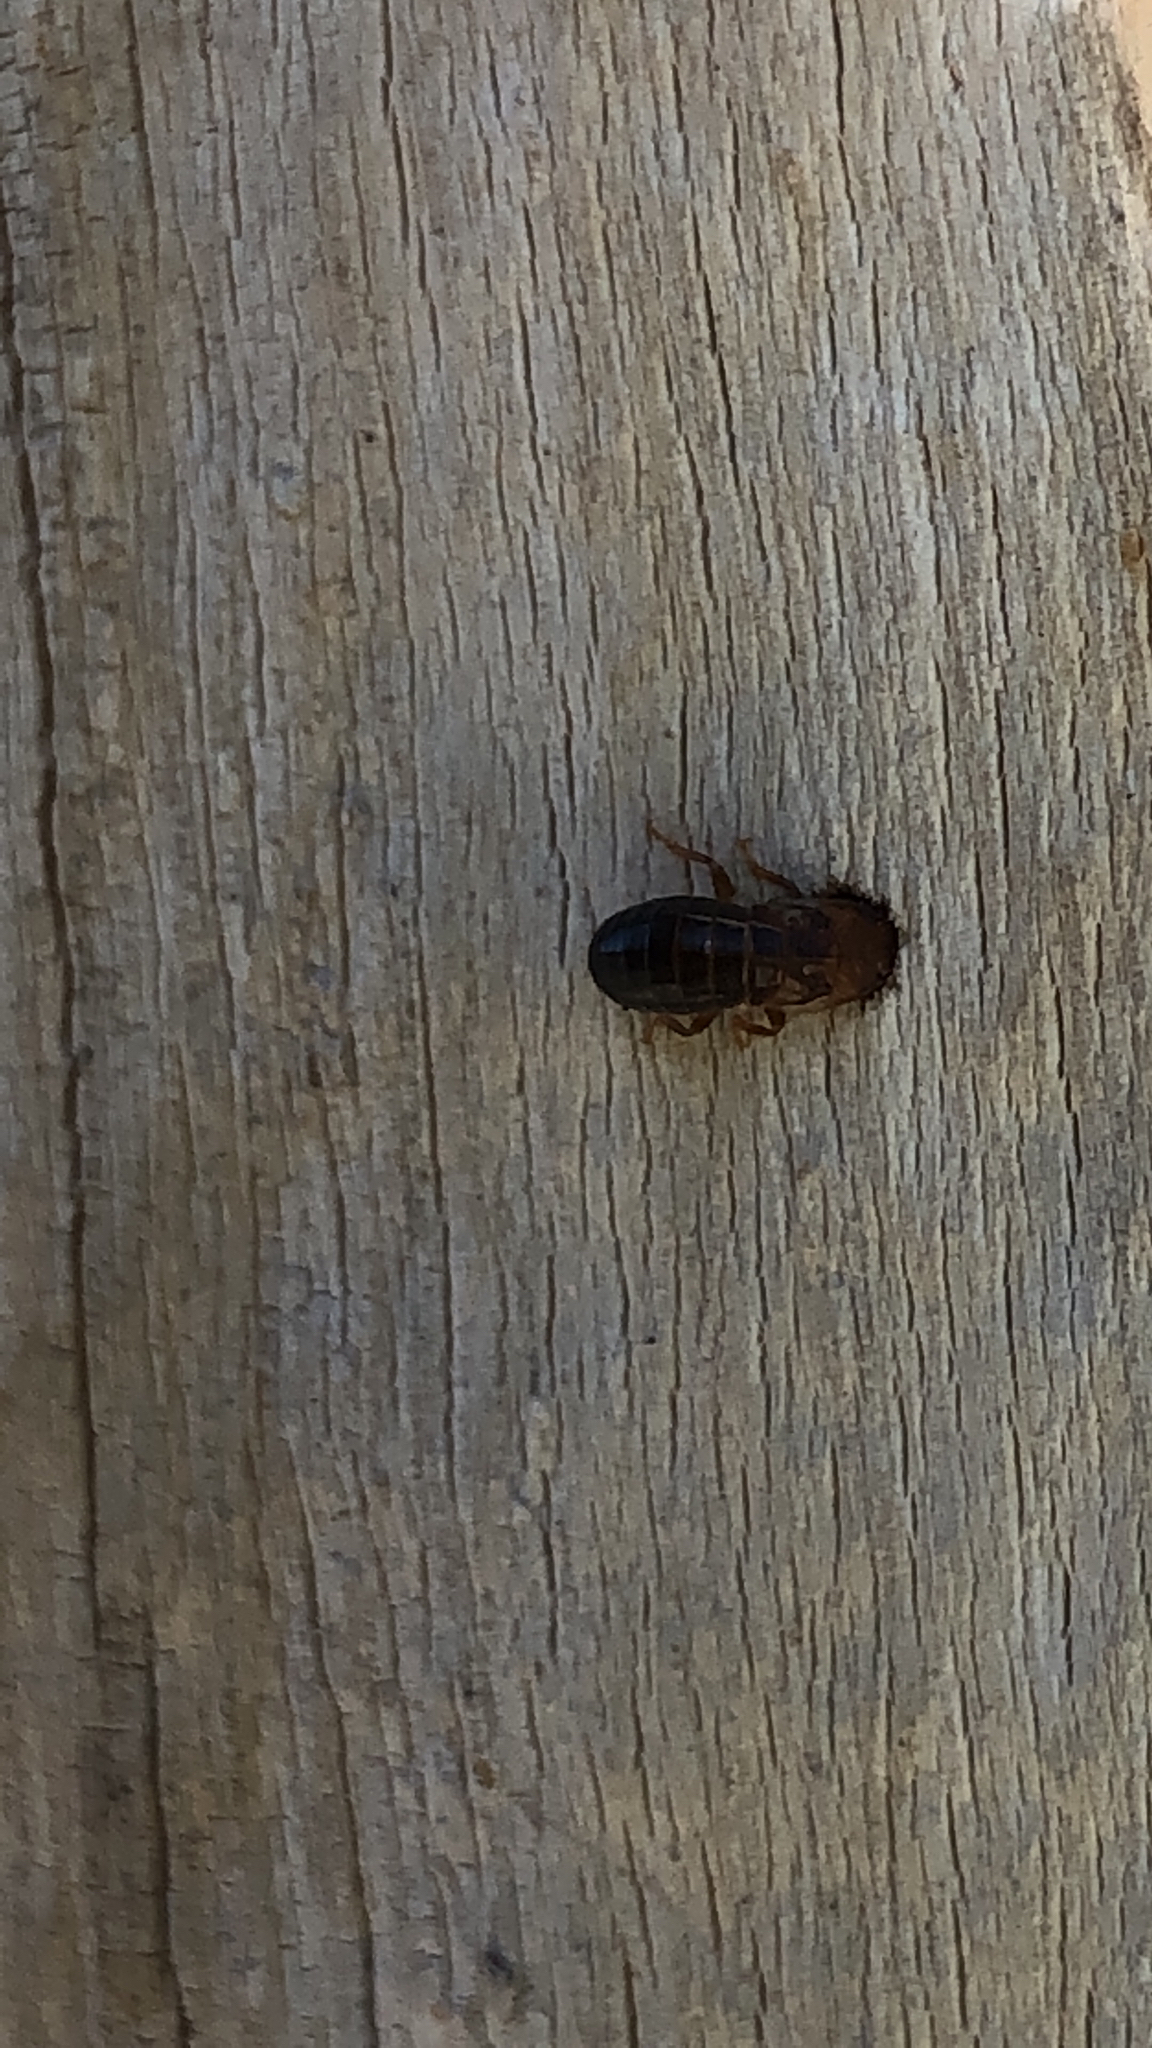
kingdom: Animalia
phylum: Arthropoda
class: Insecta
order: Blattodea
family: Kalotermitidae
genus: Incisitermes
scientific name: Incisitermes minor
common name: Termite
